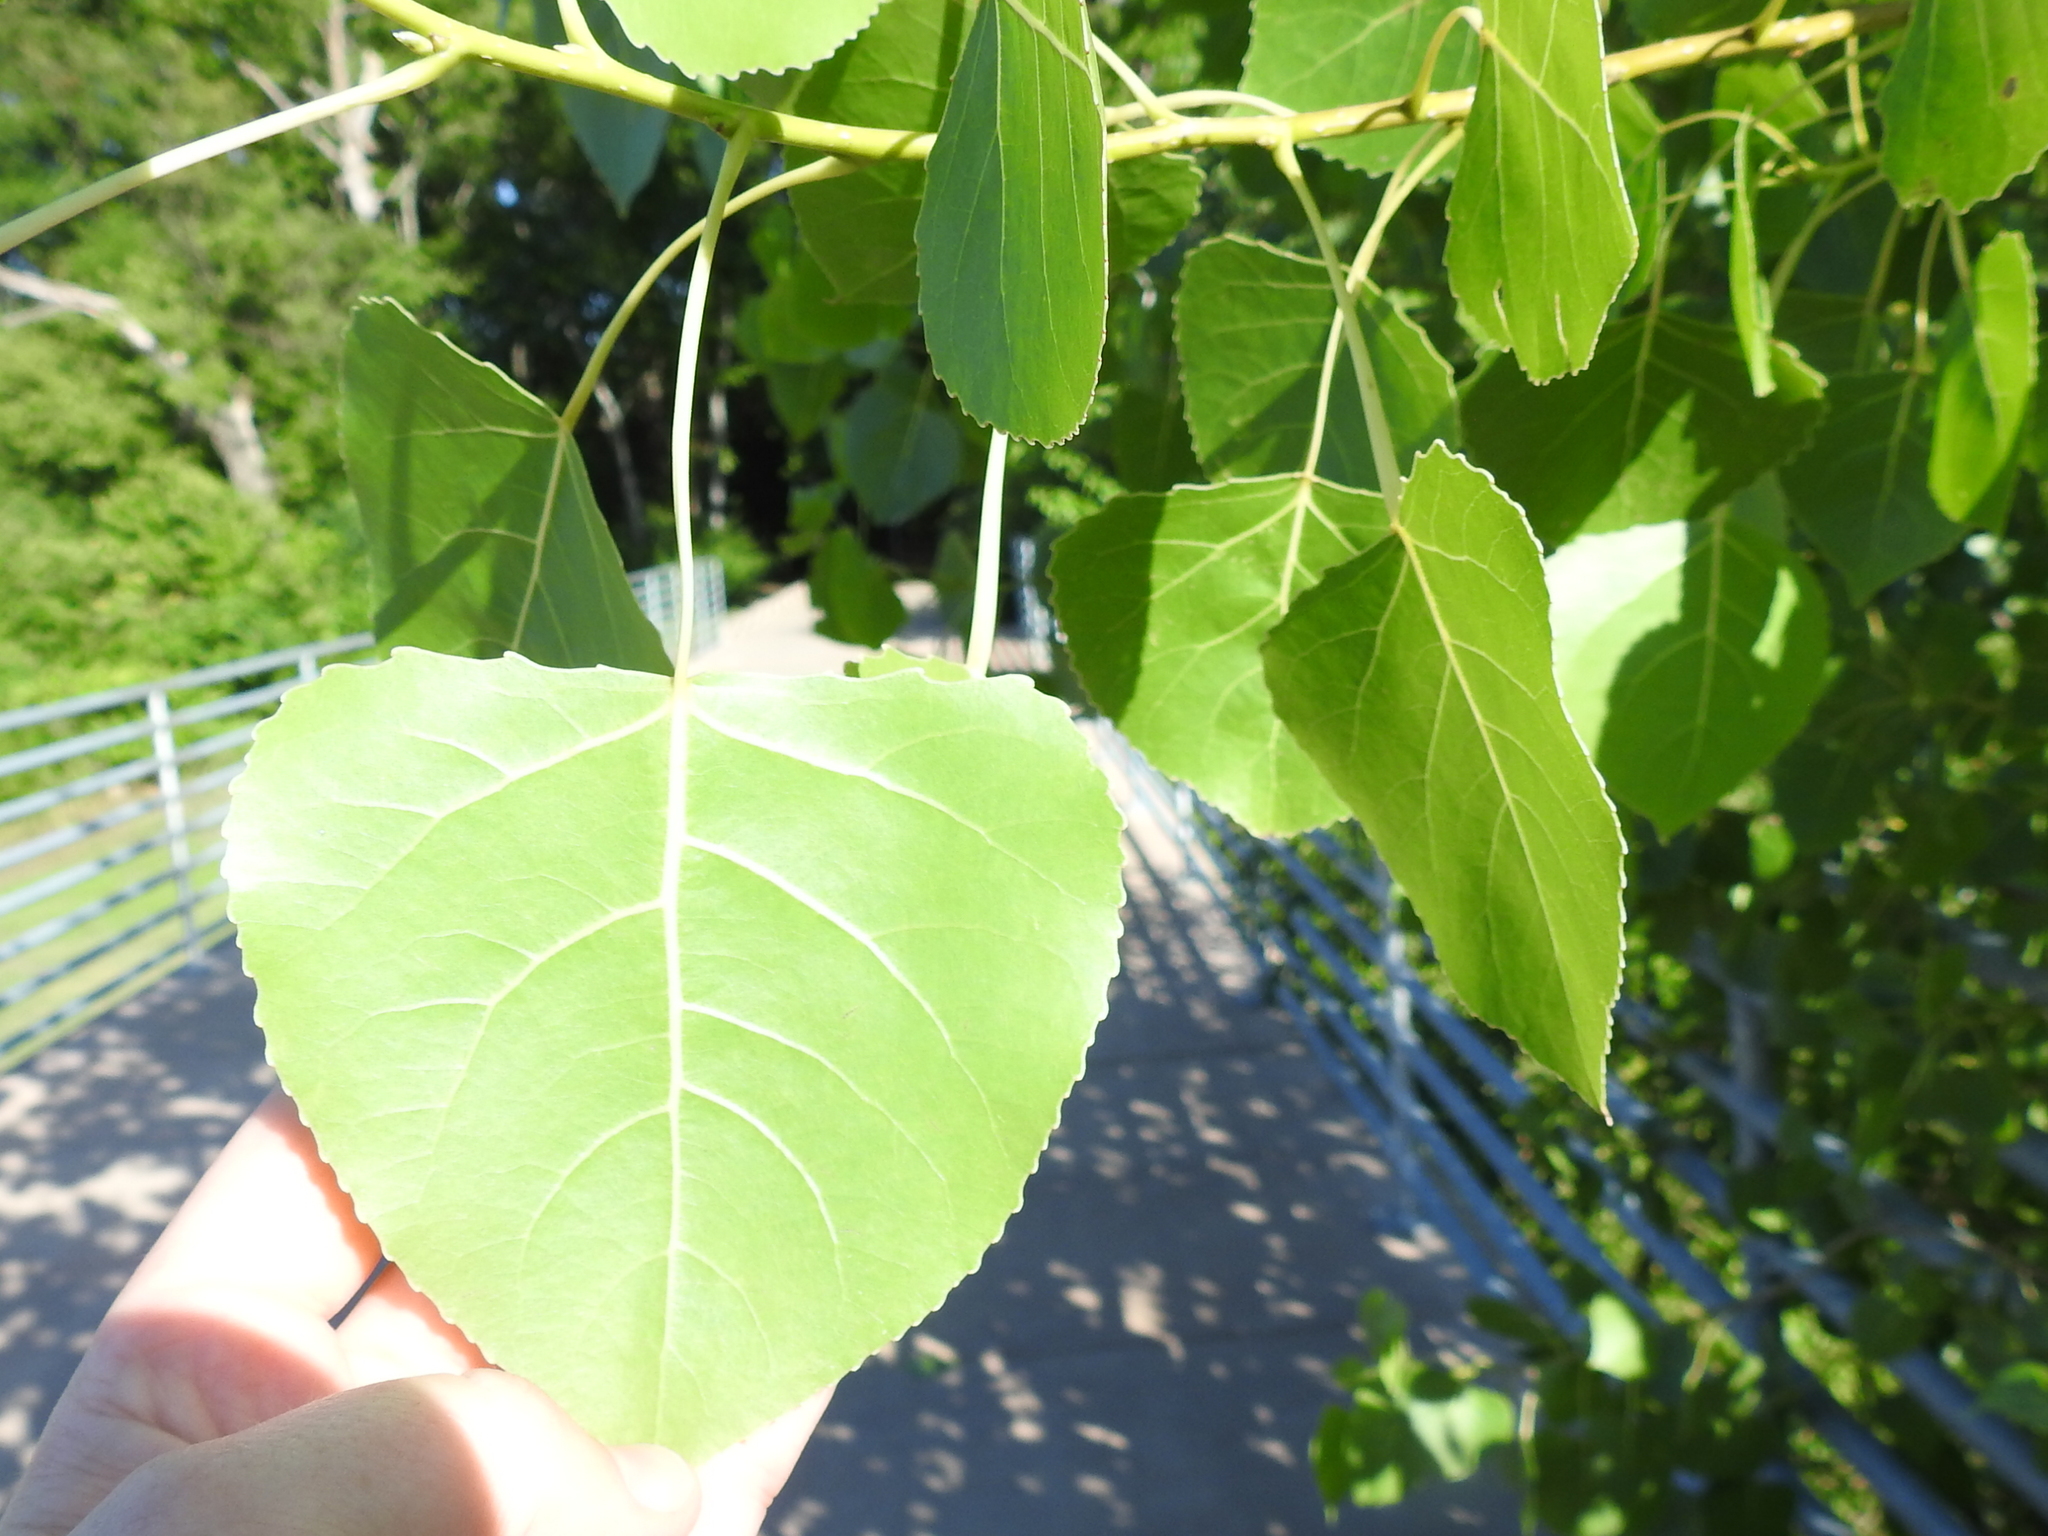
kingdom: Plantae
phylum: Tracheophyta
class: Magnoliopsida
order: Malpighiales
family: Salicaceae
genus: Populus
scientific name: Populus deltoides
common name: Eastern cottonwood
